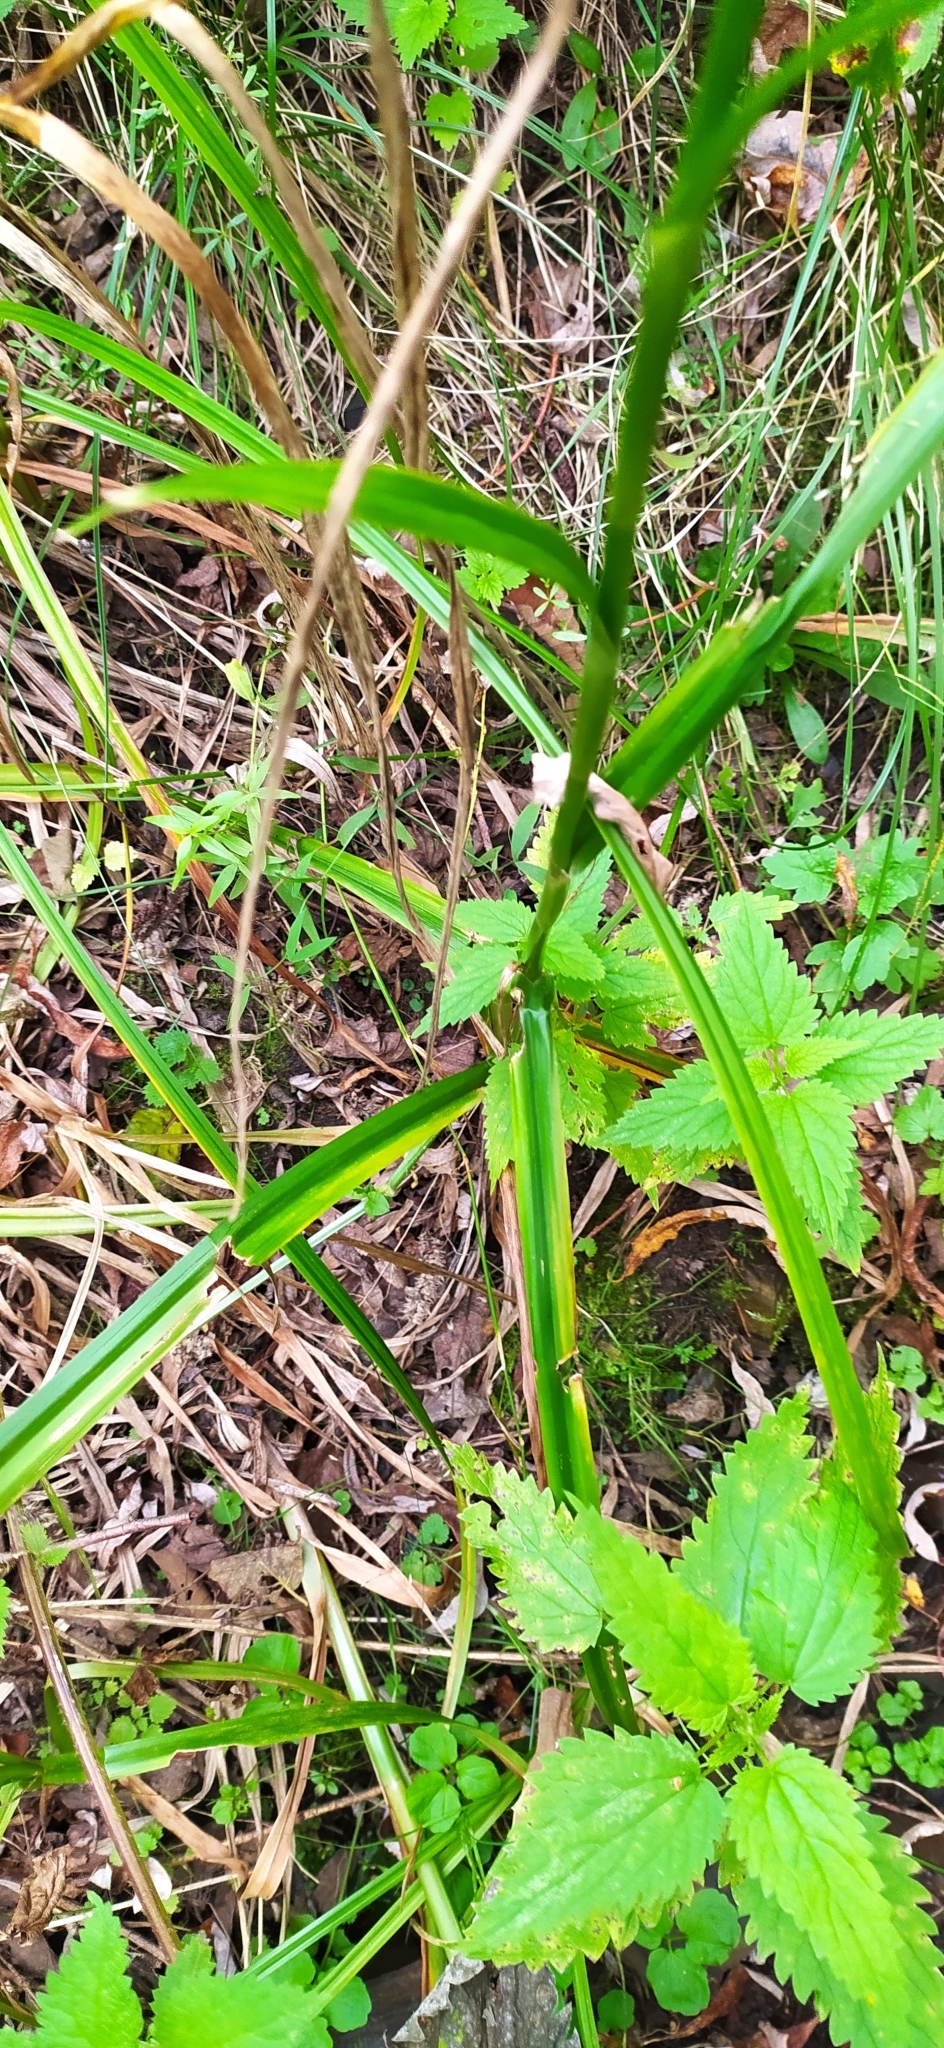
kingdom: Plantae
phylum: Tracheophyta
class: Liliopsida
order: Poales
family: Cyperaceae
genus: Scirpus
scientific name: Scirpus sylvaticus
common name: Wood club-rush
